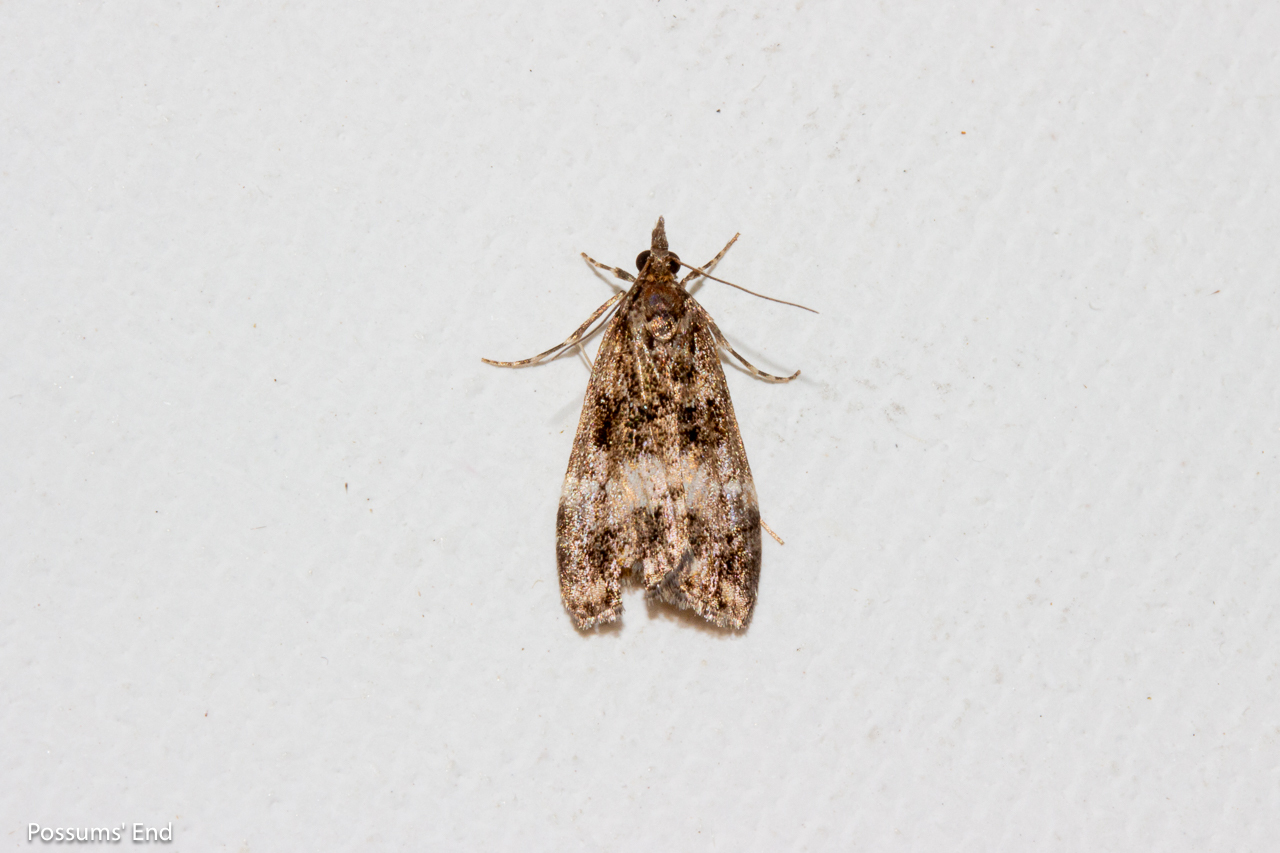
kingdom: Animalia
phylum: Arthropoda
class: Insecta
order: Lepidoptera
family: Crambidae
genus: Eudonia
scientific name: Eudonia dinodes
